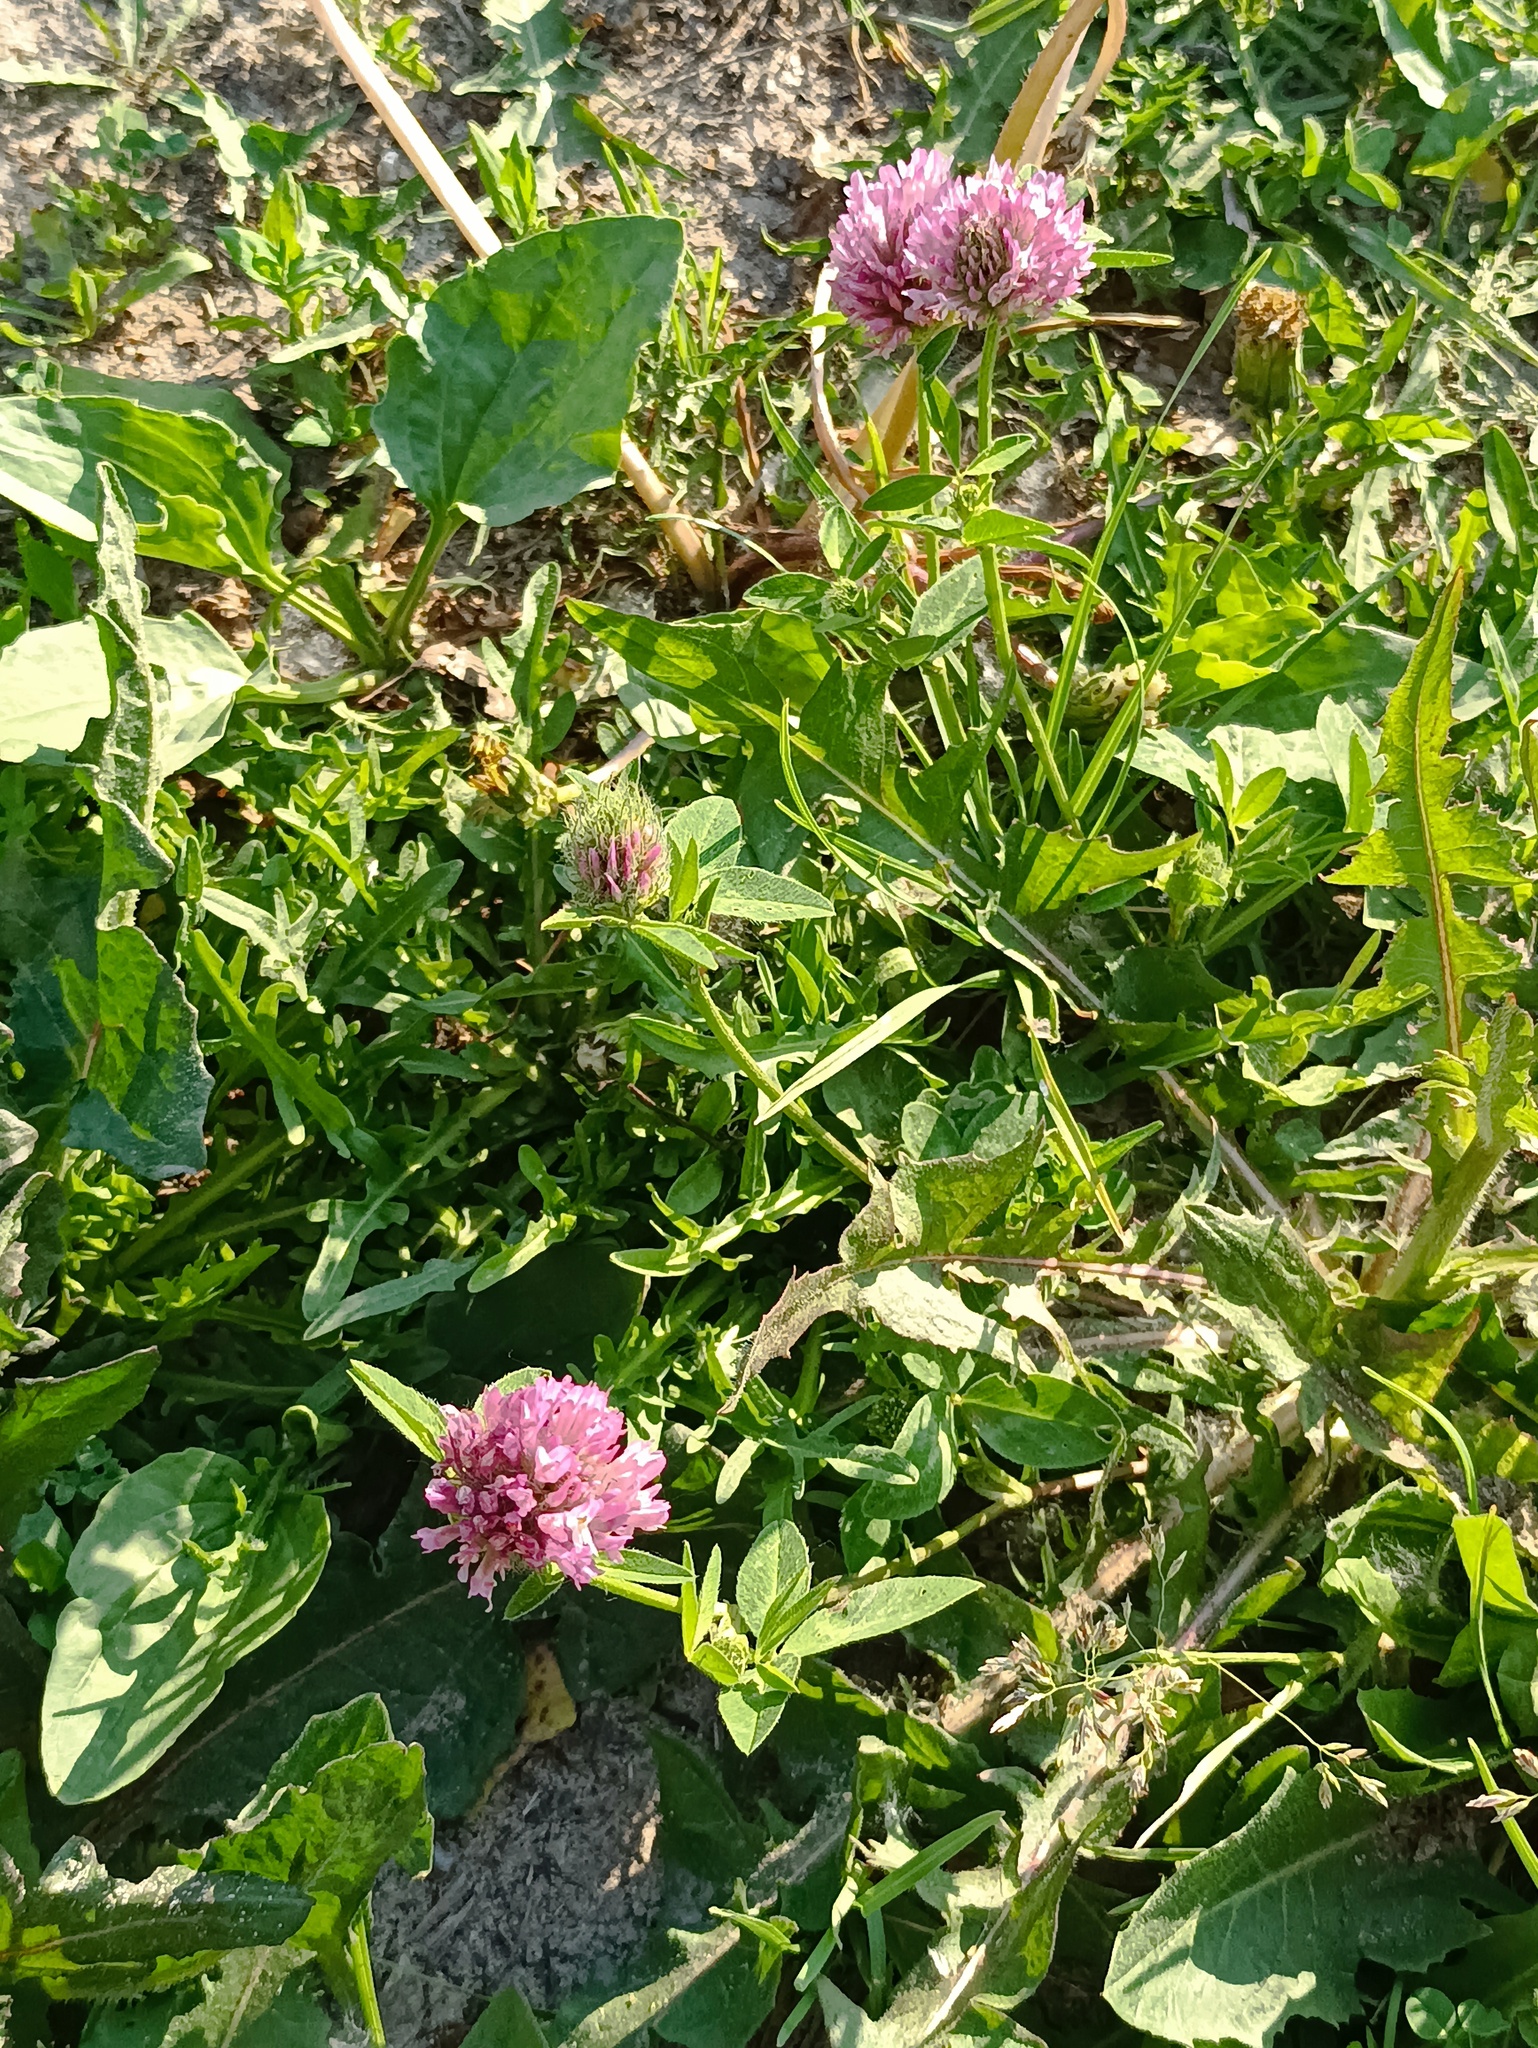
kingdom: Plantae
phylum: Tracheophyta
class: Magnoliopsida
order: Fabales
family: Fabaceae
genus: Trifolium
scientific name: Trifolium pratense
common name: Red clover
